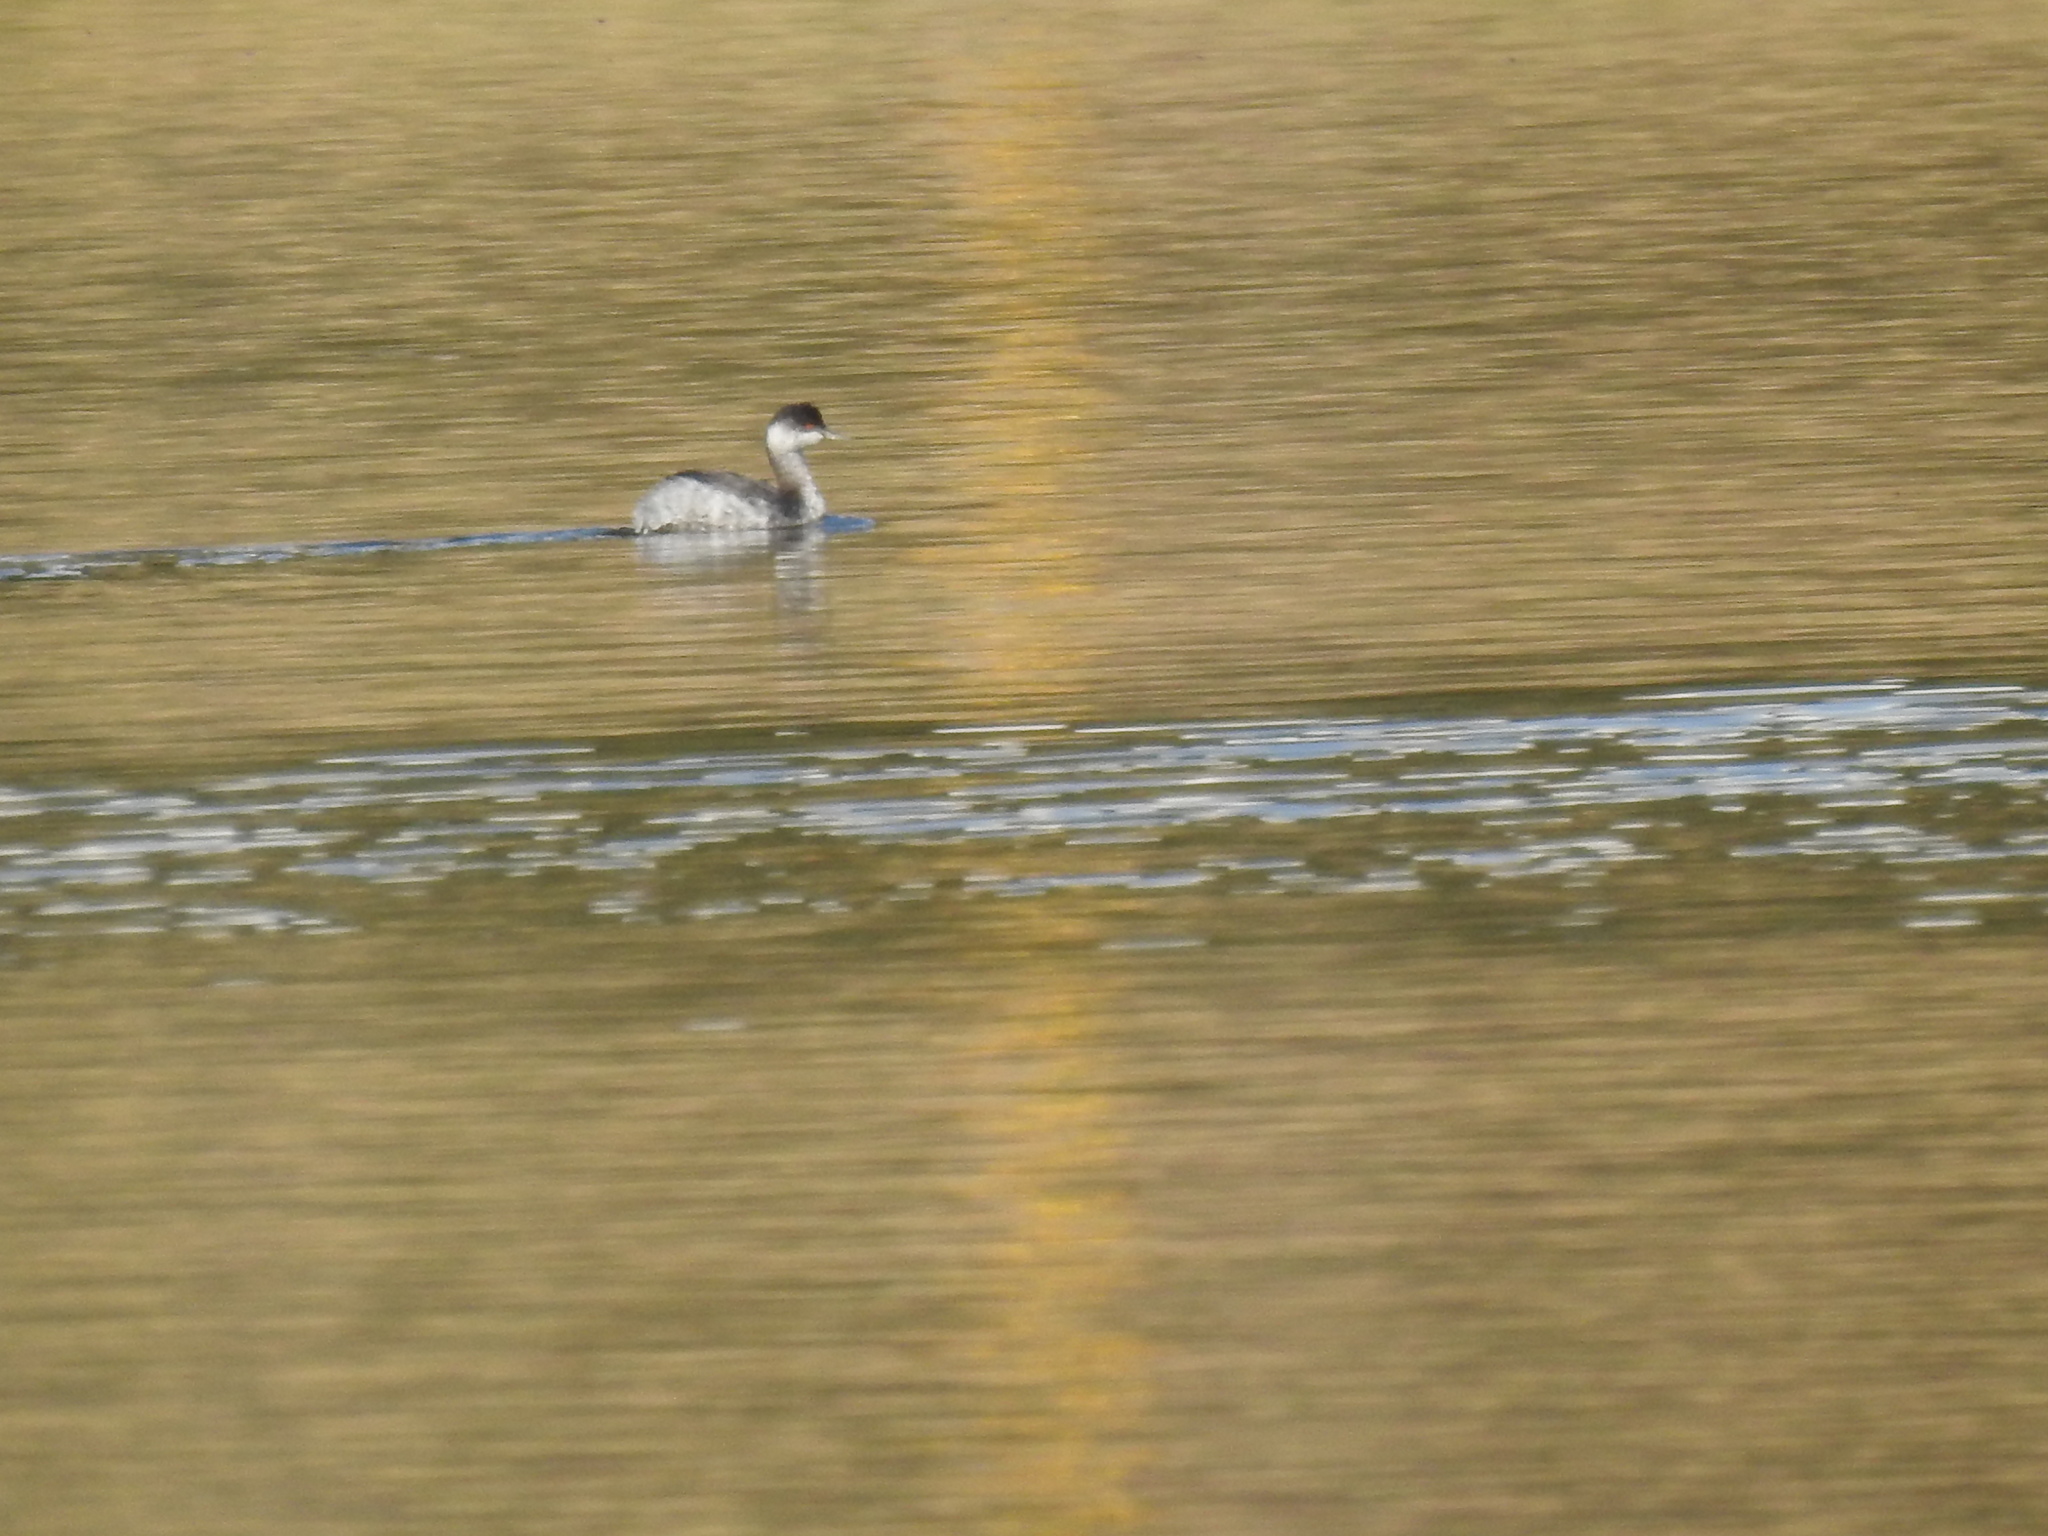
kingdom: Animalia
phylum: Chordata
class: Aves
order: Podicipediformes
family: Podicipedidae
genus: Podiceps
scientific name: Podiceps nigricollis
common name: Black-necked grebe
